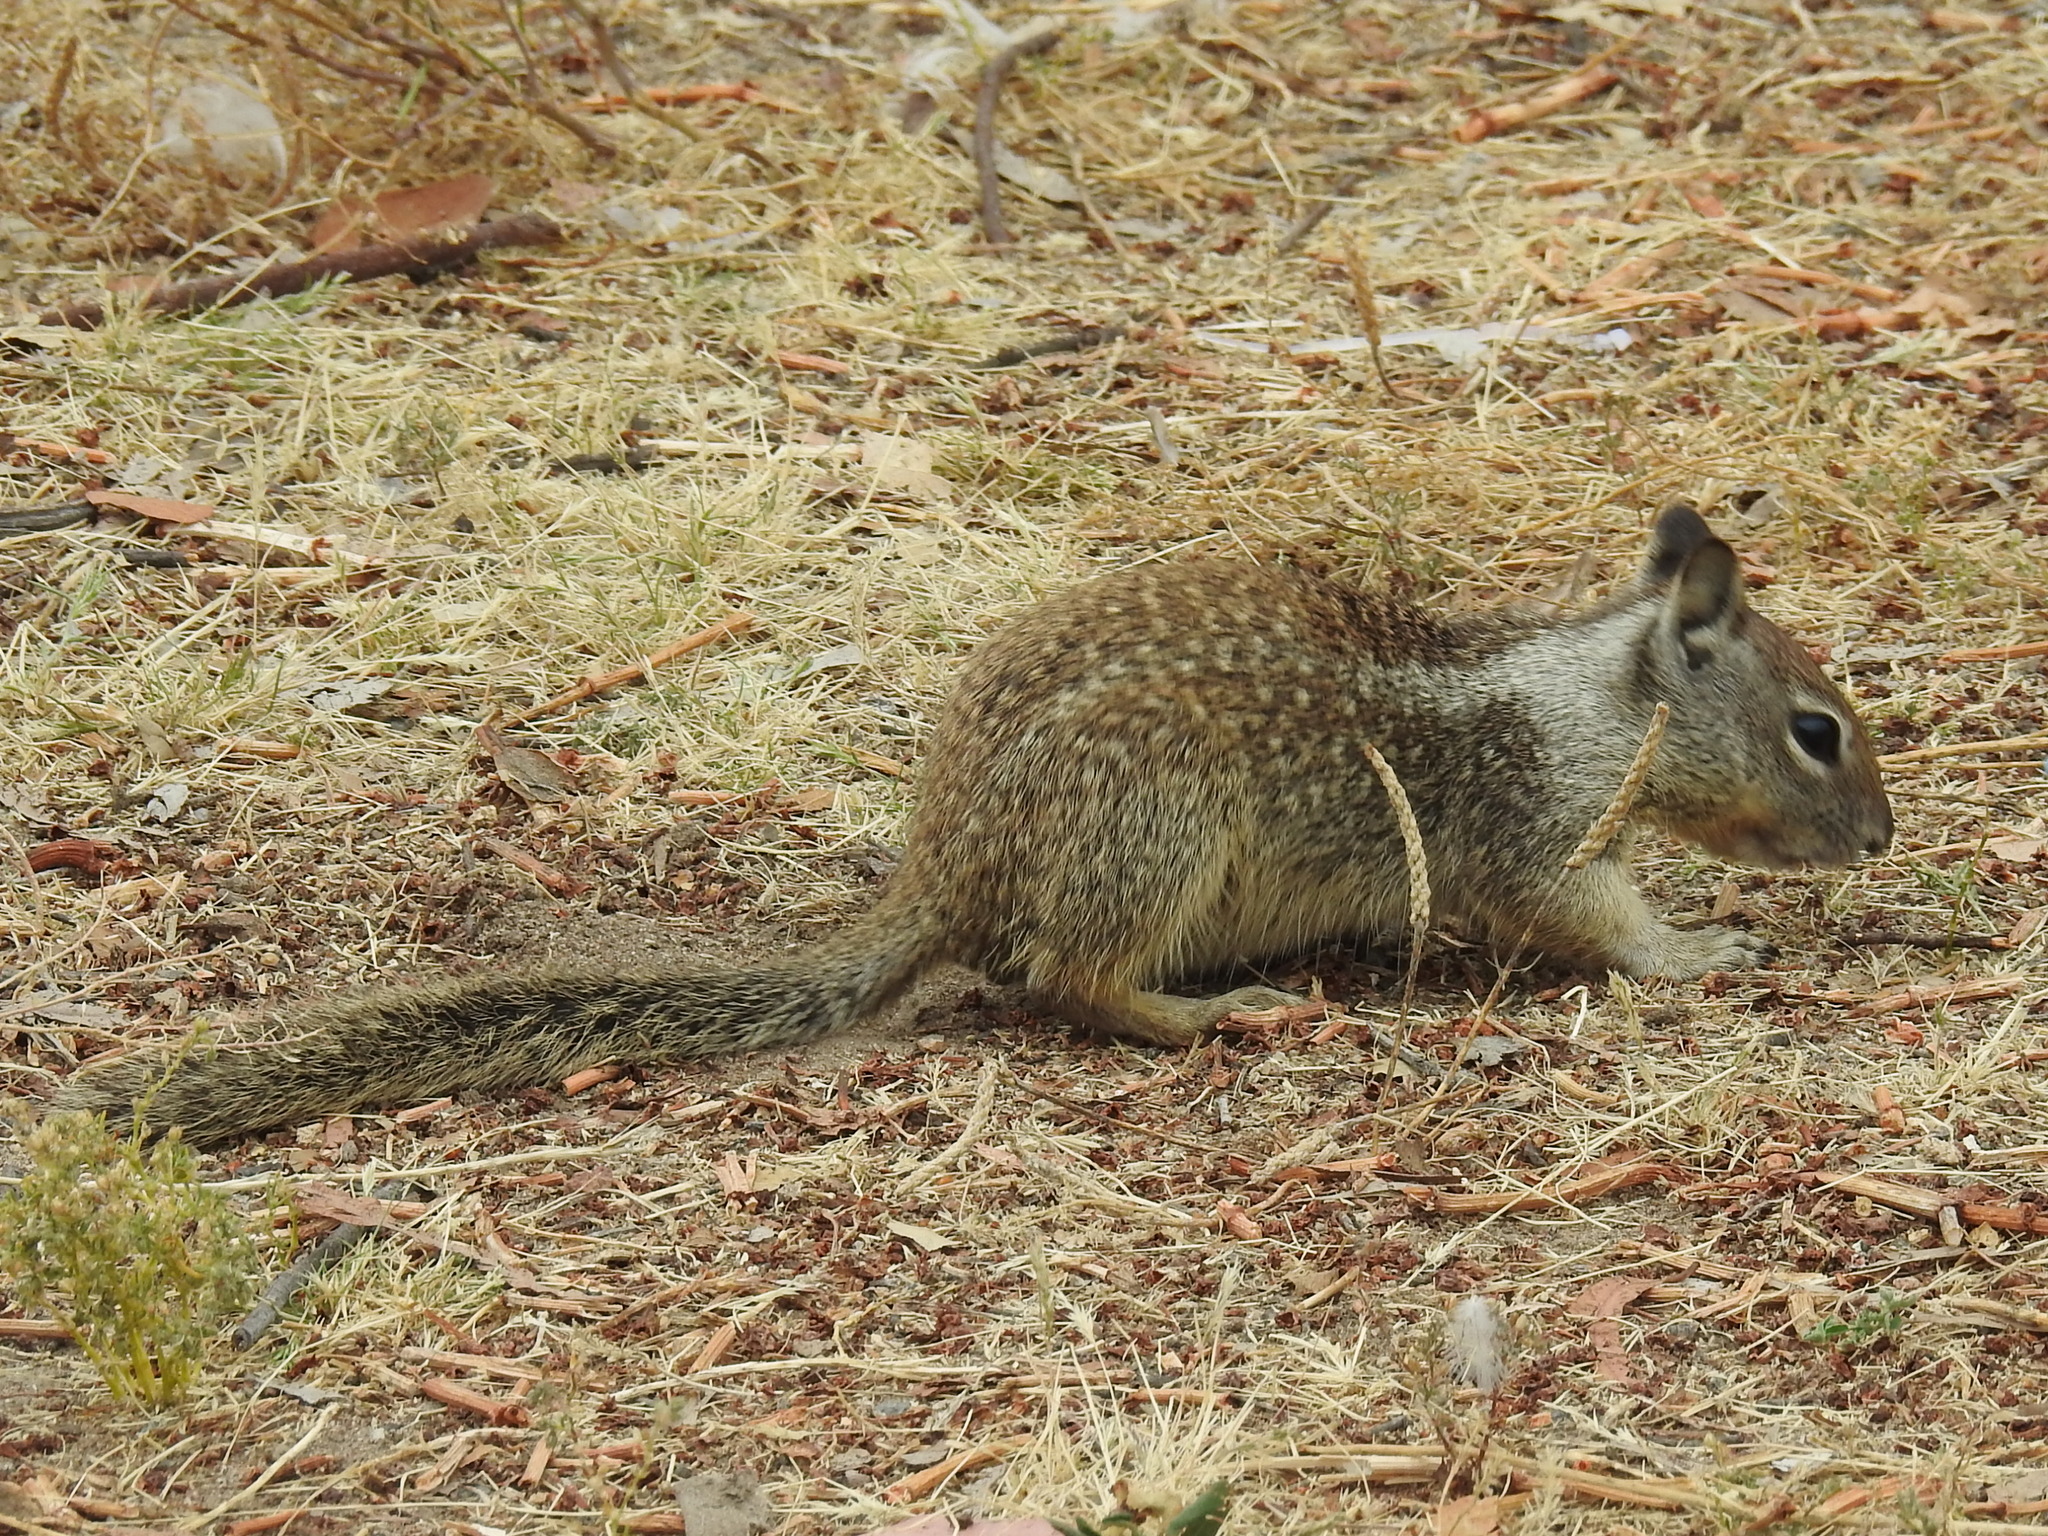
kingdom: Animalia
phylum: Chordata
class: Mammalia
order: Rodentia
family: Sciuridae
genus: Otospermophilus
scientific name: Otospermophilus beecheyi
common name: California ground squirrel
